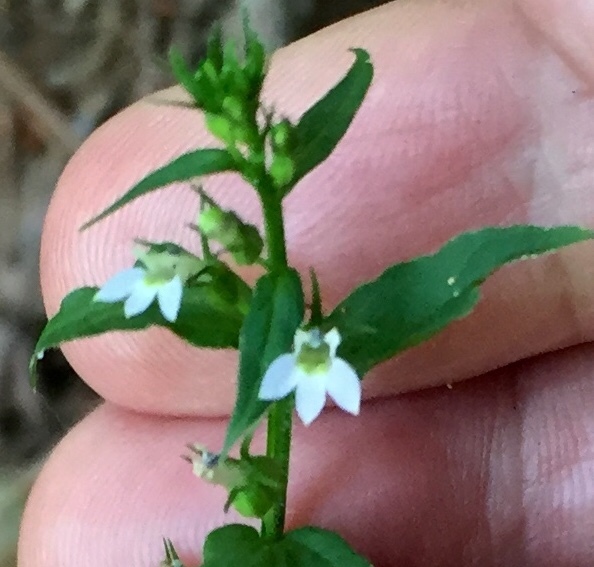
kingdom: Plantae
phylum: Tracheophyta
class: Magnoliopsida
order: Asterales
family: Campanulaceae
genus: Lobelia
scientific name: Lobelia inflata
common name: Indian tobacco
